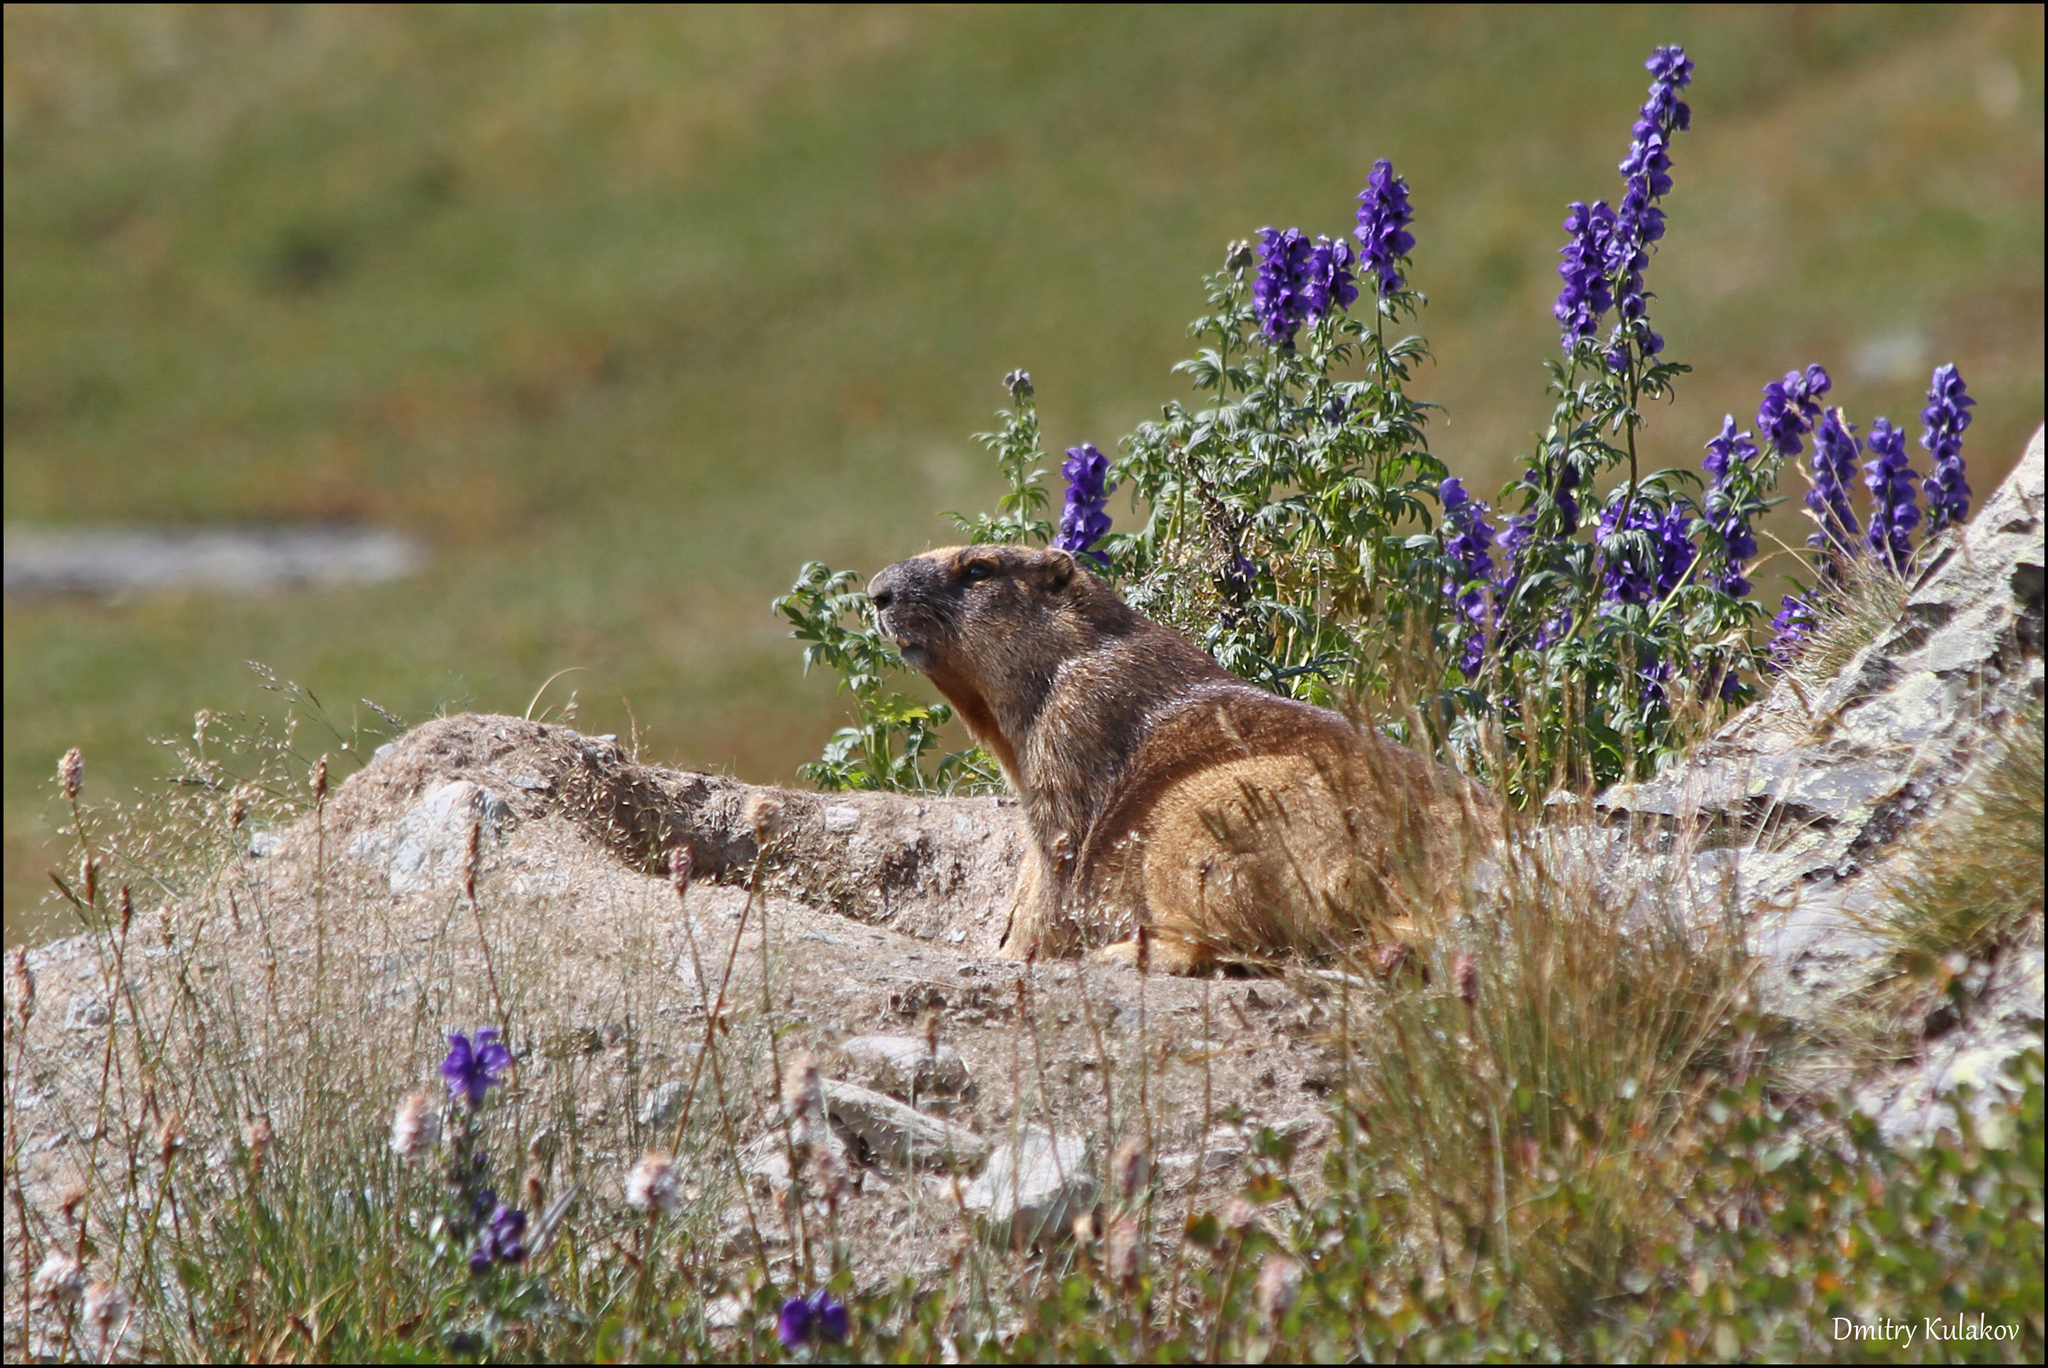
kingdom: Animalia
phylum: Chordata
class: Mammalia
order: Rodentia
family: Sciuridae
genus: Marmota
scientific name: Marmota baibacina
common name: Gray marmot
